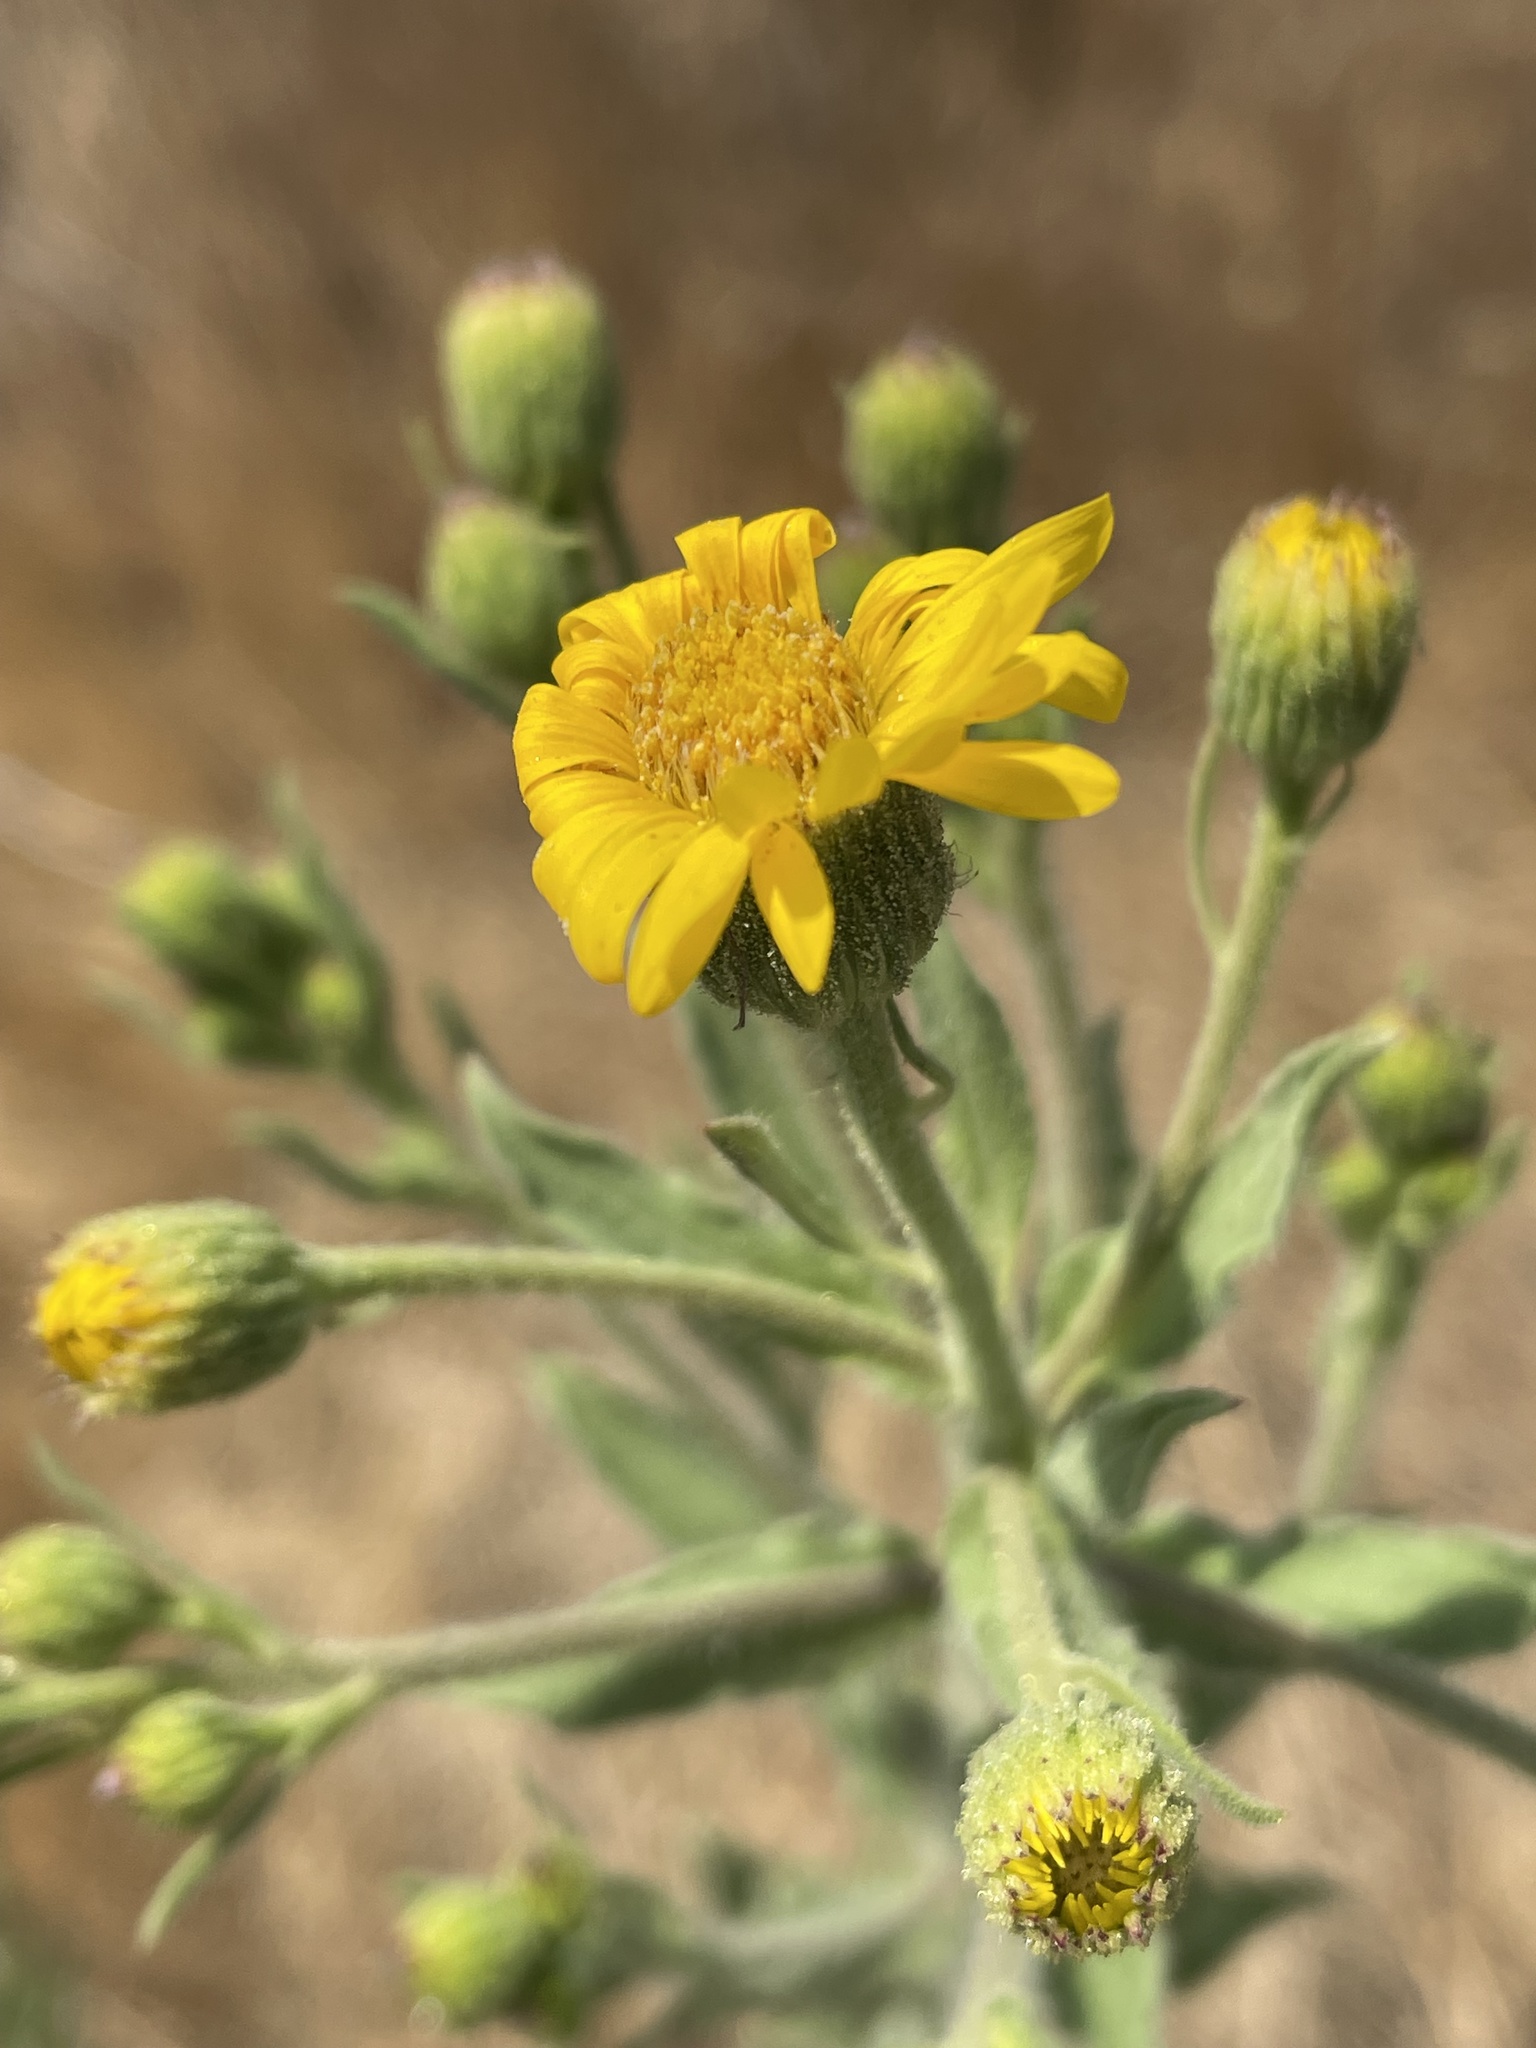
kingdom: Plantae
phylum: Tracheophyta
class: Magnoliopsida
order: Asterales
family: Asteraceae
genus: Heterotheca
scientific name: Heterotheca grandiflora
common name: Telegraphweed
